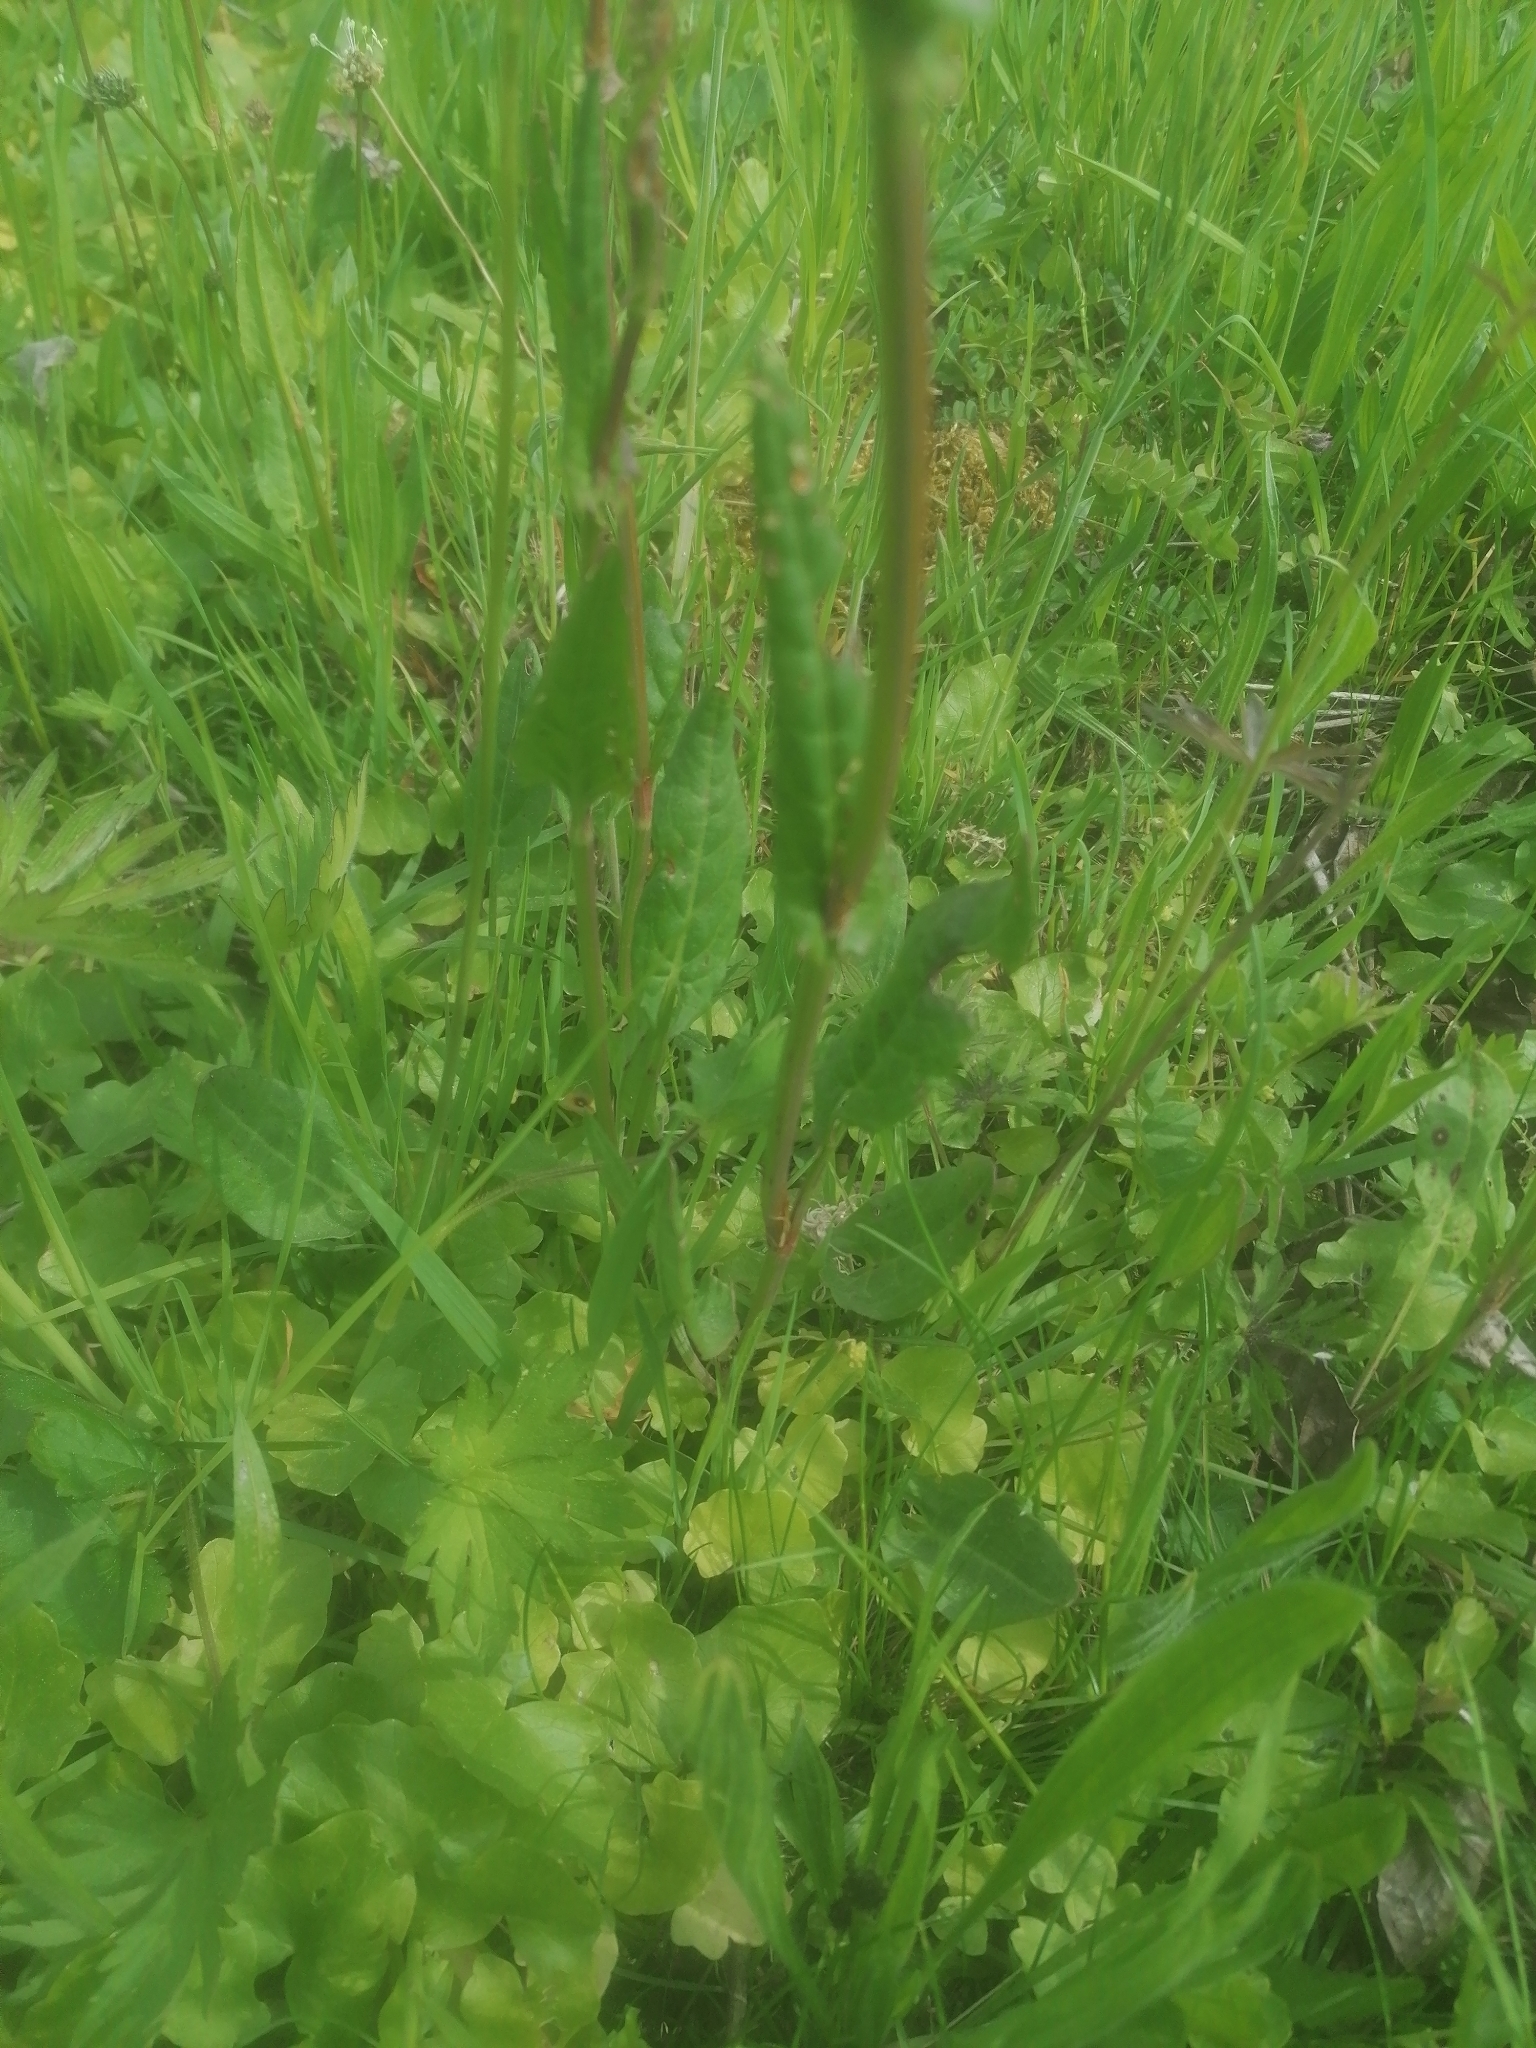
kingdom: Plantae
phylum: Tracheophyta
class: Magnoliopsida
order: Caryophyllales
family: Polygonaceae
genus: Rumex
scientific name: Rumex acetosa
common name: Garden sorrel
